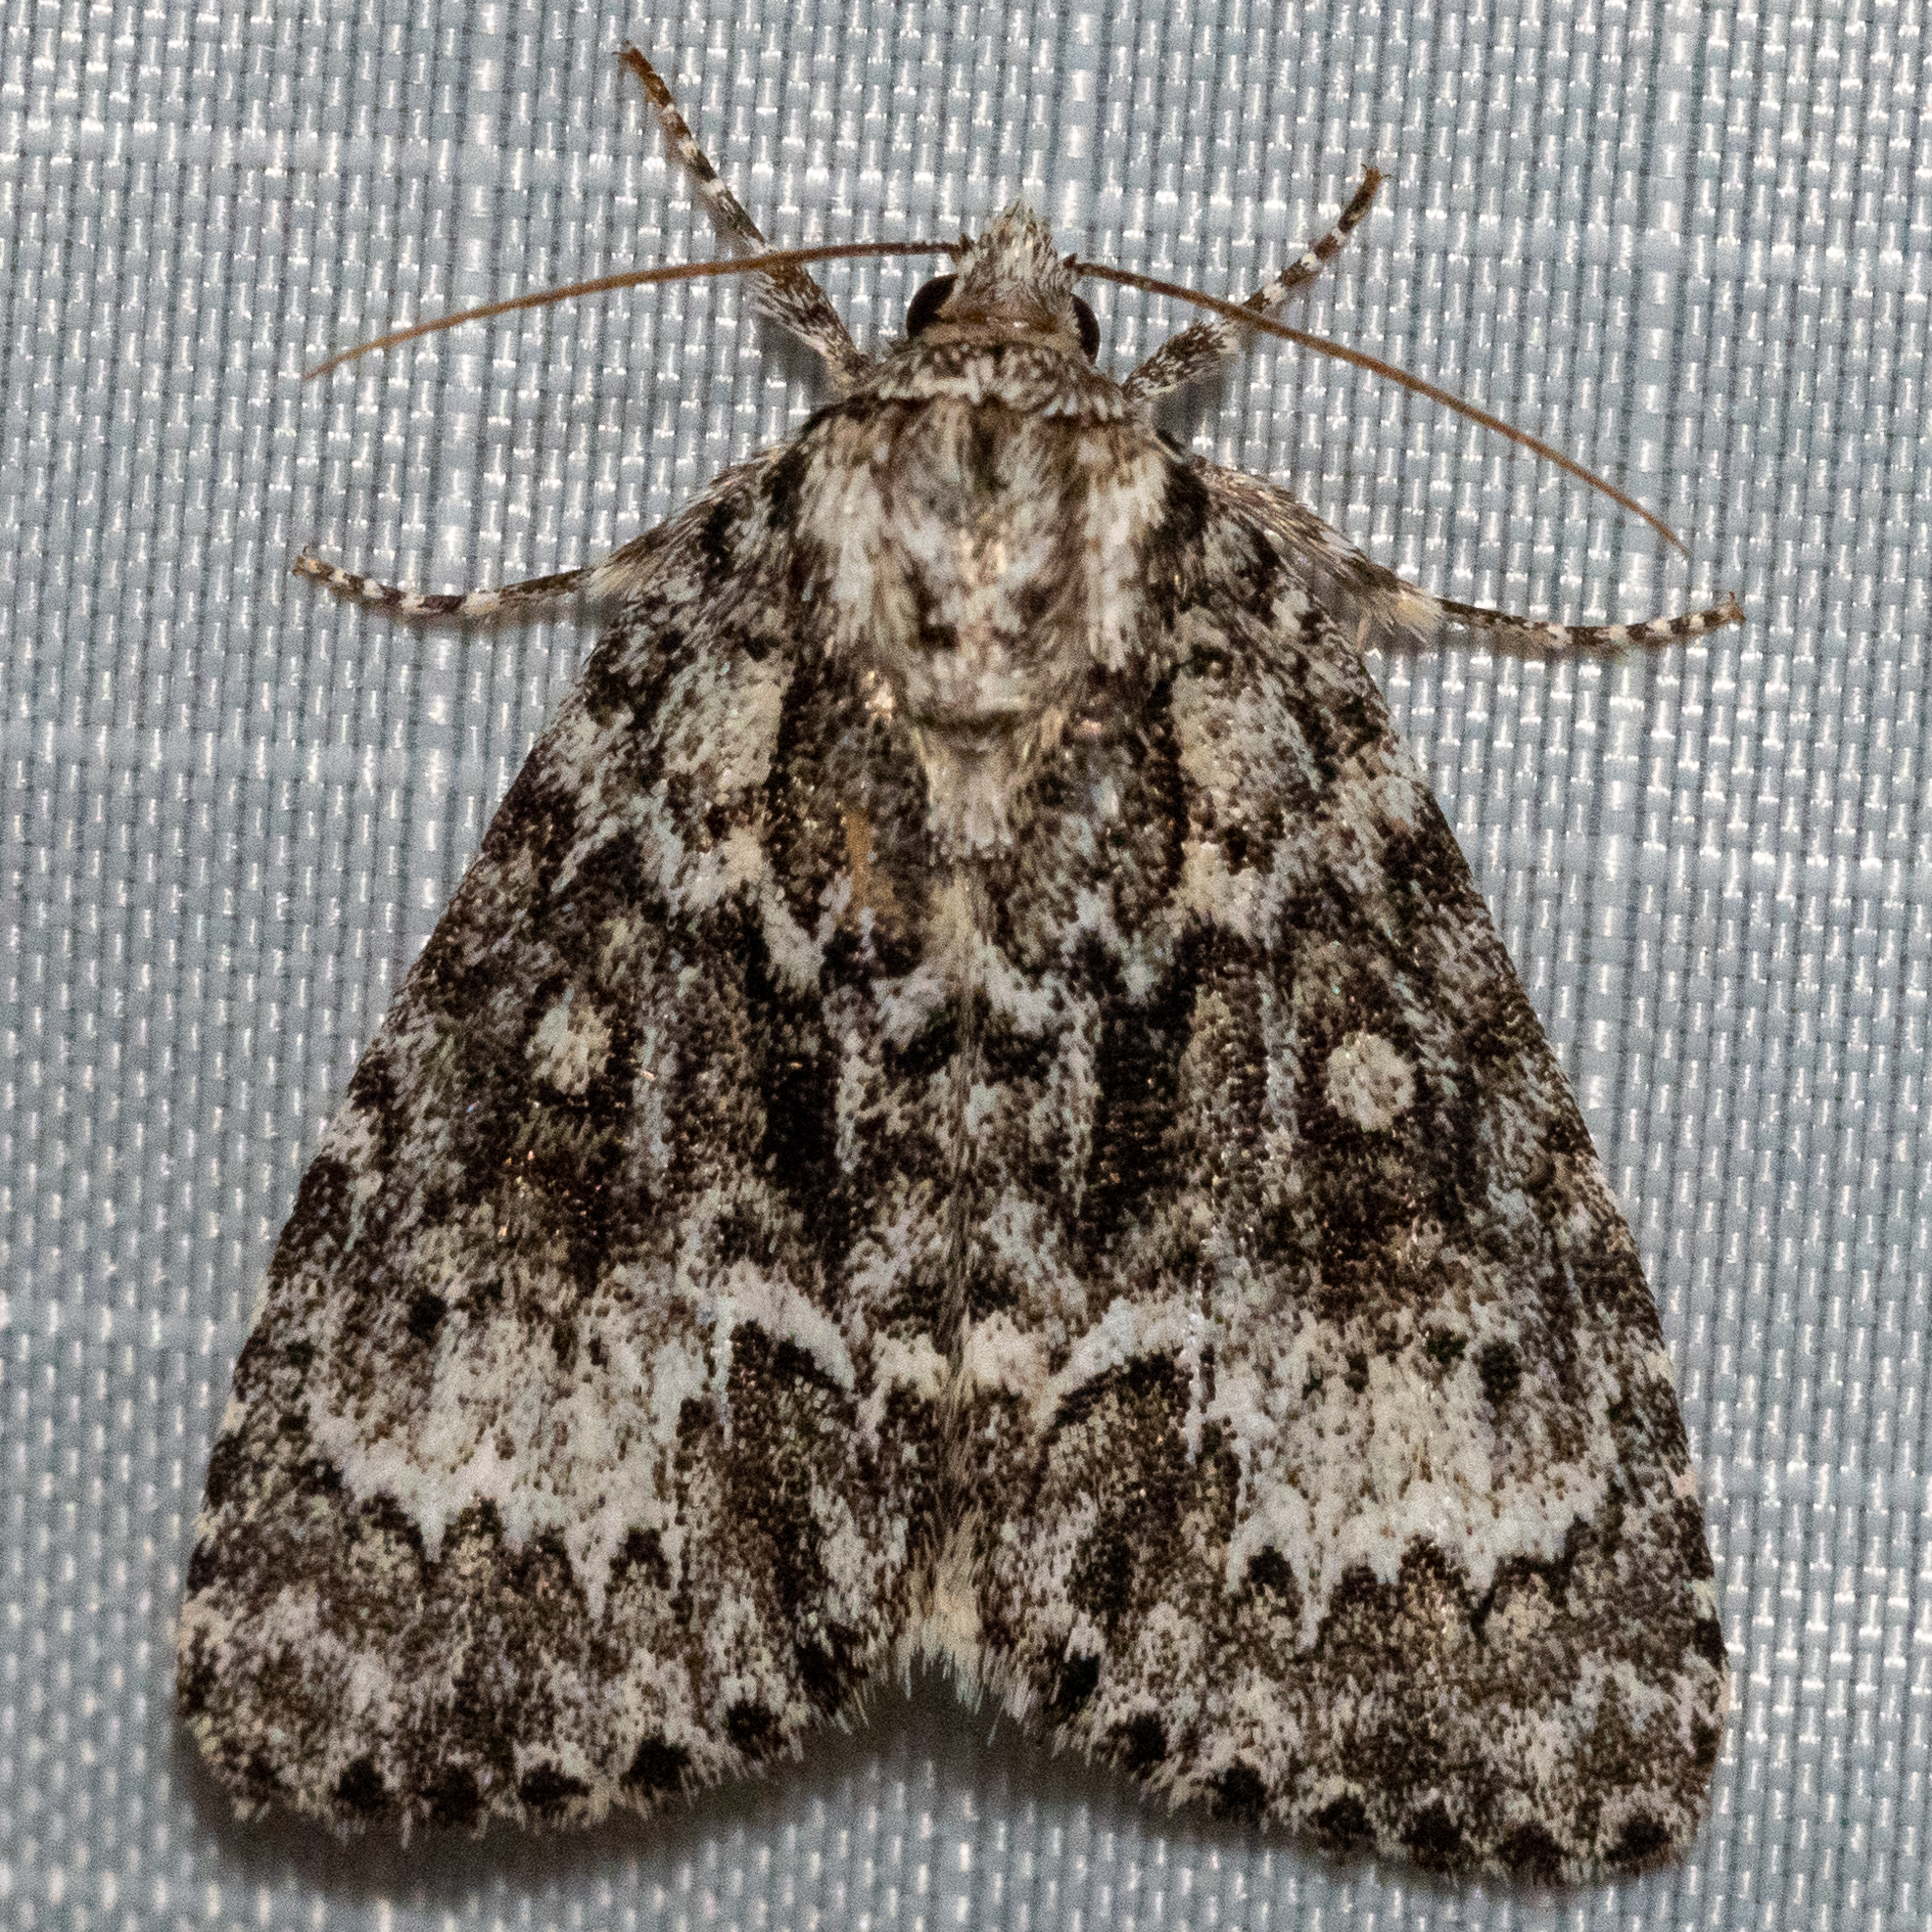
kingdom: Animalia
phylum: Arthropoda
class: Insecta
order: Lepidoptera
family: Noctuidae
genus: Acronicta
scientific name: Acronicta fragilis
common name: Fragile dagger
